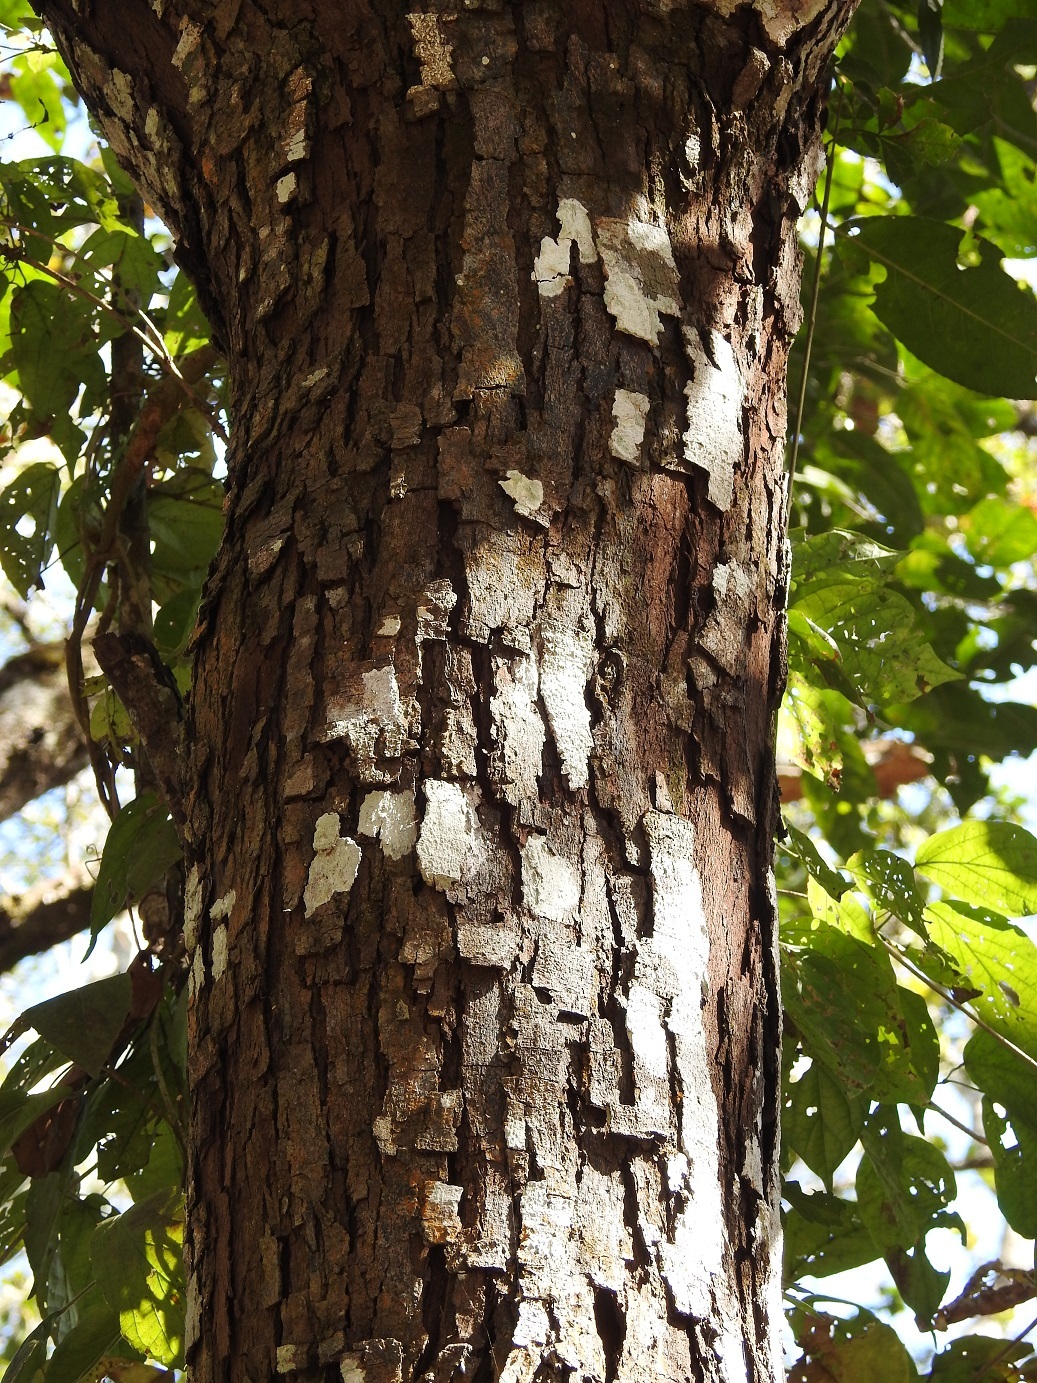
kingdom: Plantae
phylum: Tracheophyta
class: Magnoliopsida
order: Rosales
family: Rosaceae
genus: Prunus
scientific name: Prunus salasii
